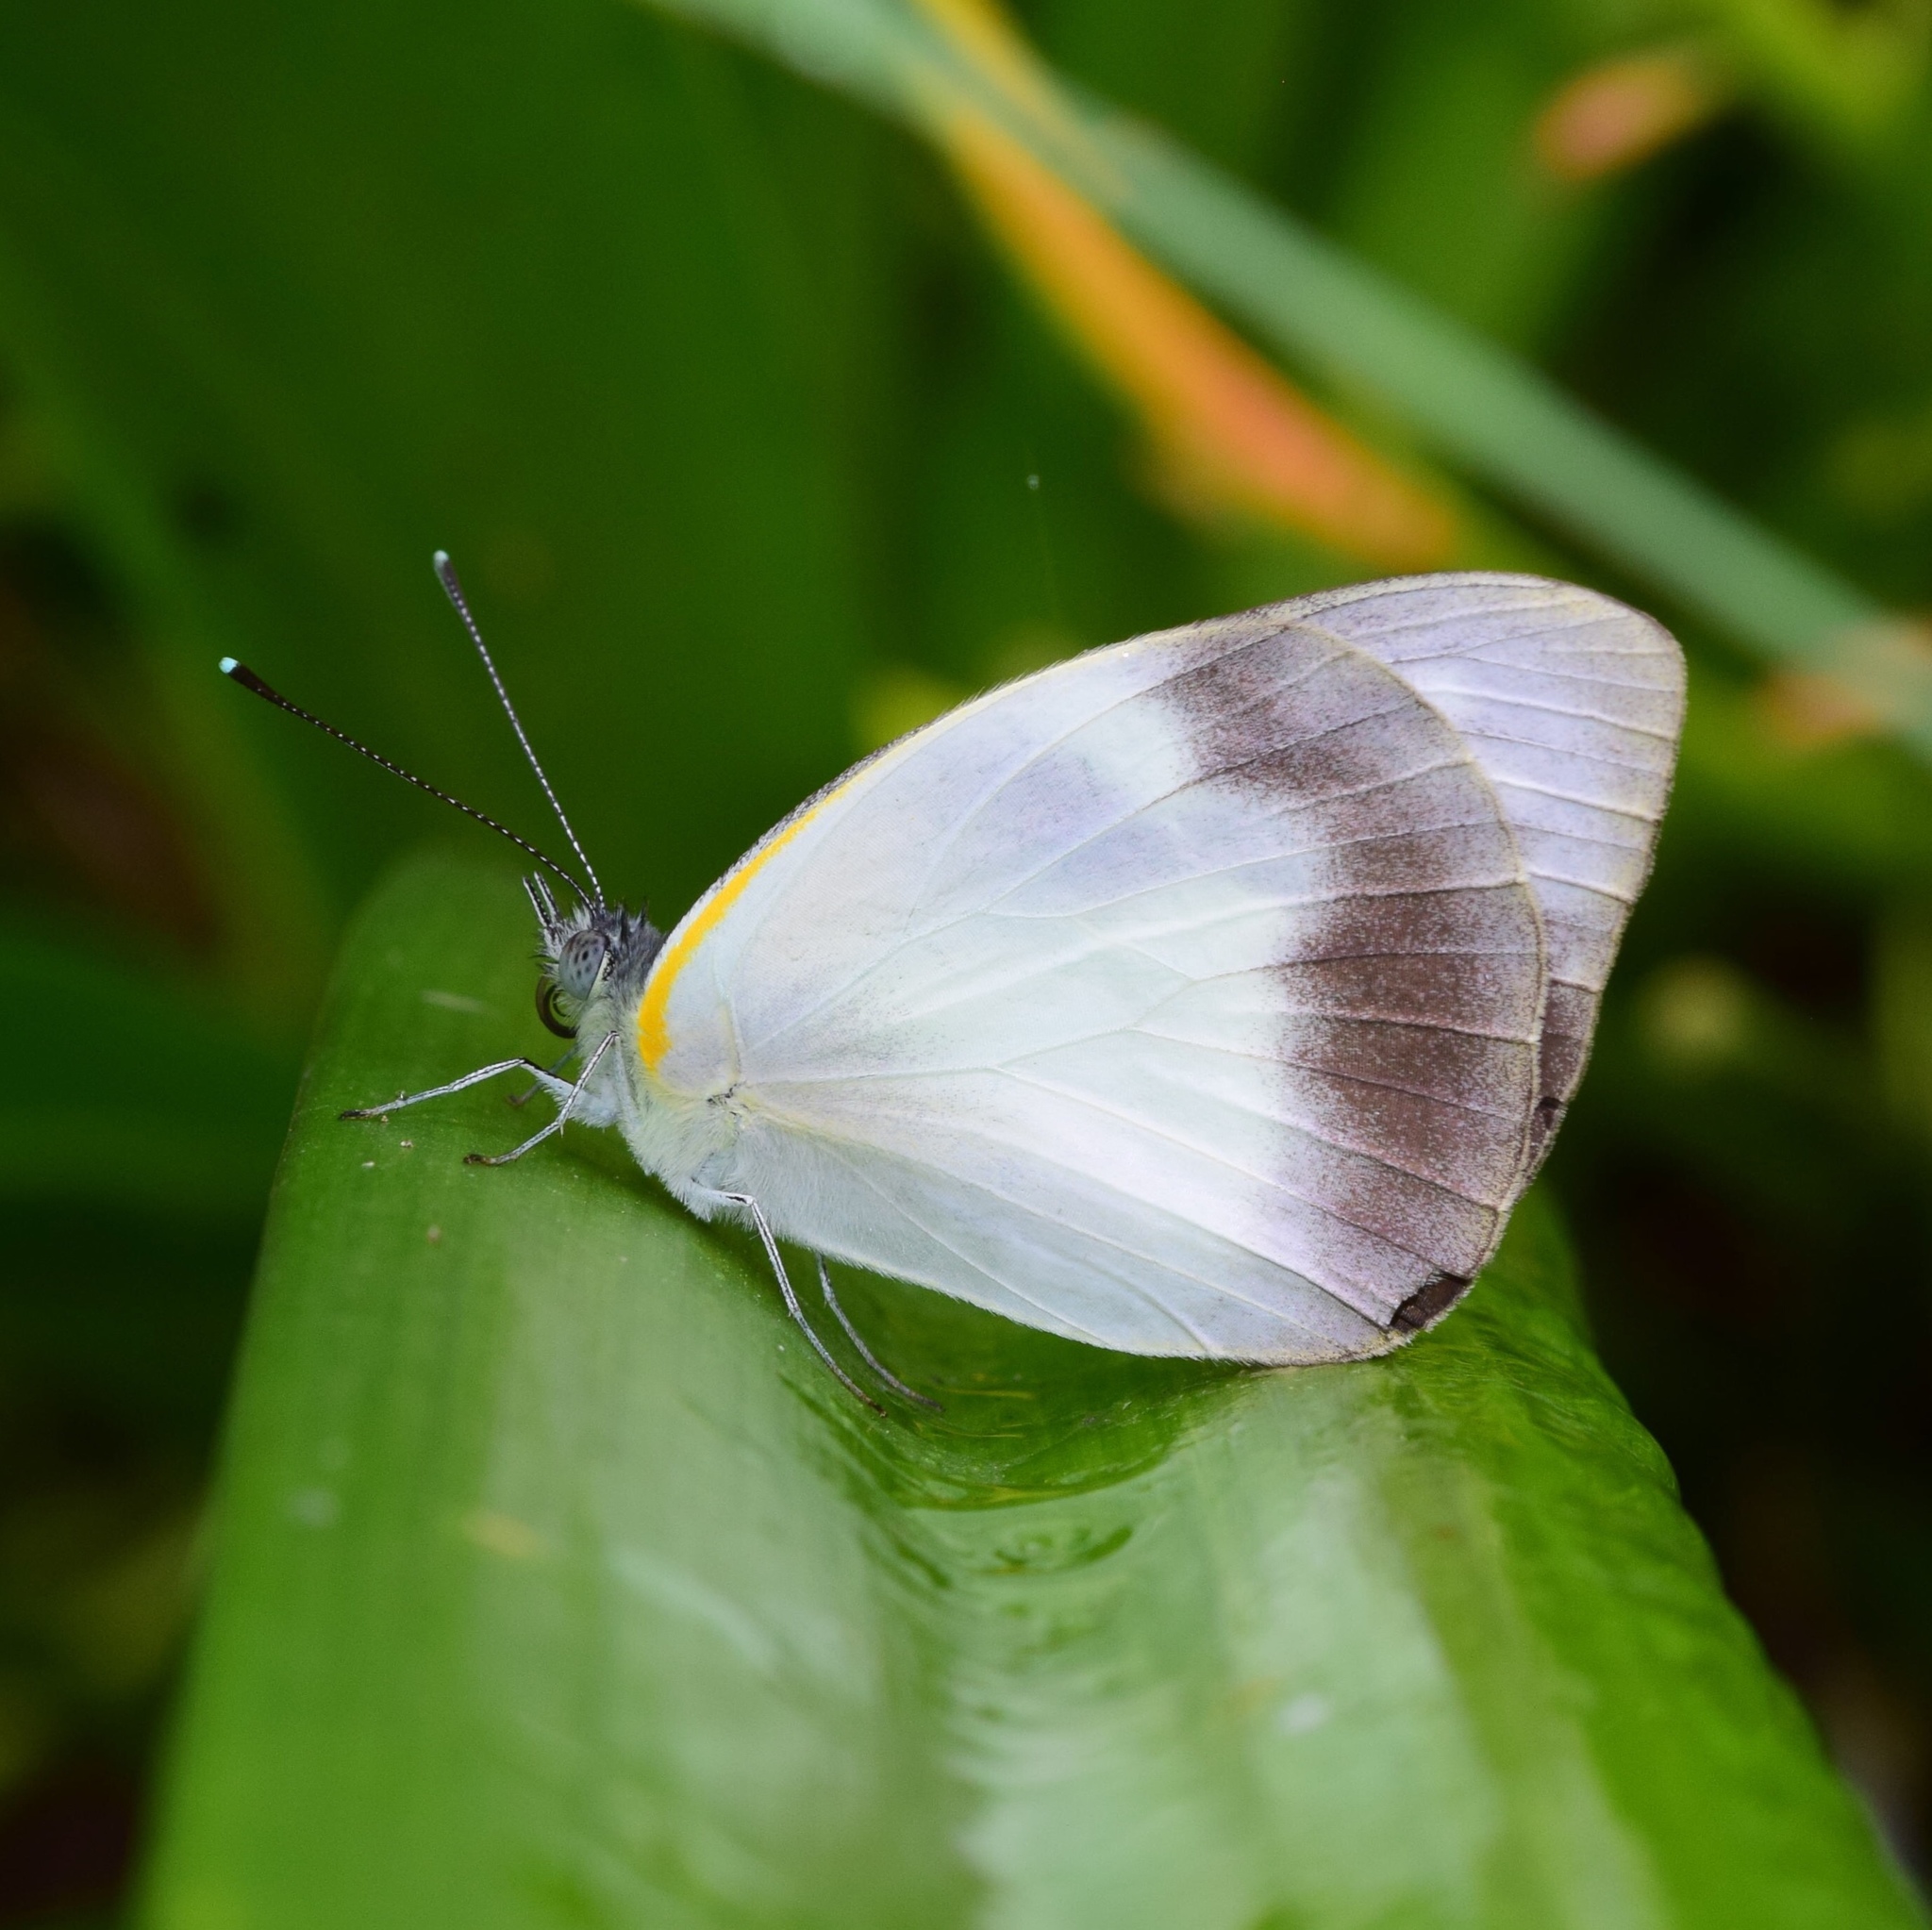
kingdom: Animalia
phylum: Arthropoda
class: Insecta
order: Lepidoptera
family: Pieridae
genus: Glutophrissa
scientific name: Glutophrissa epaphia
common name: African albatross
